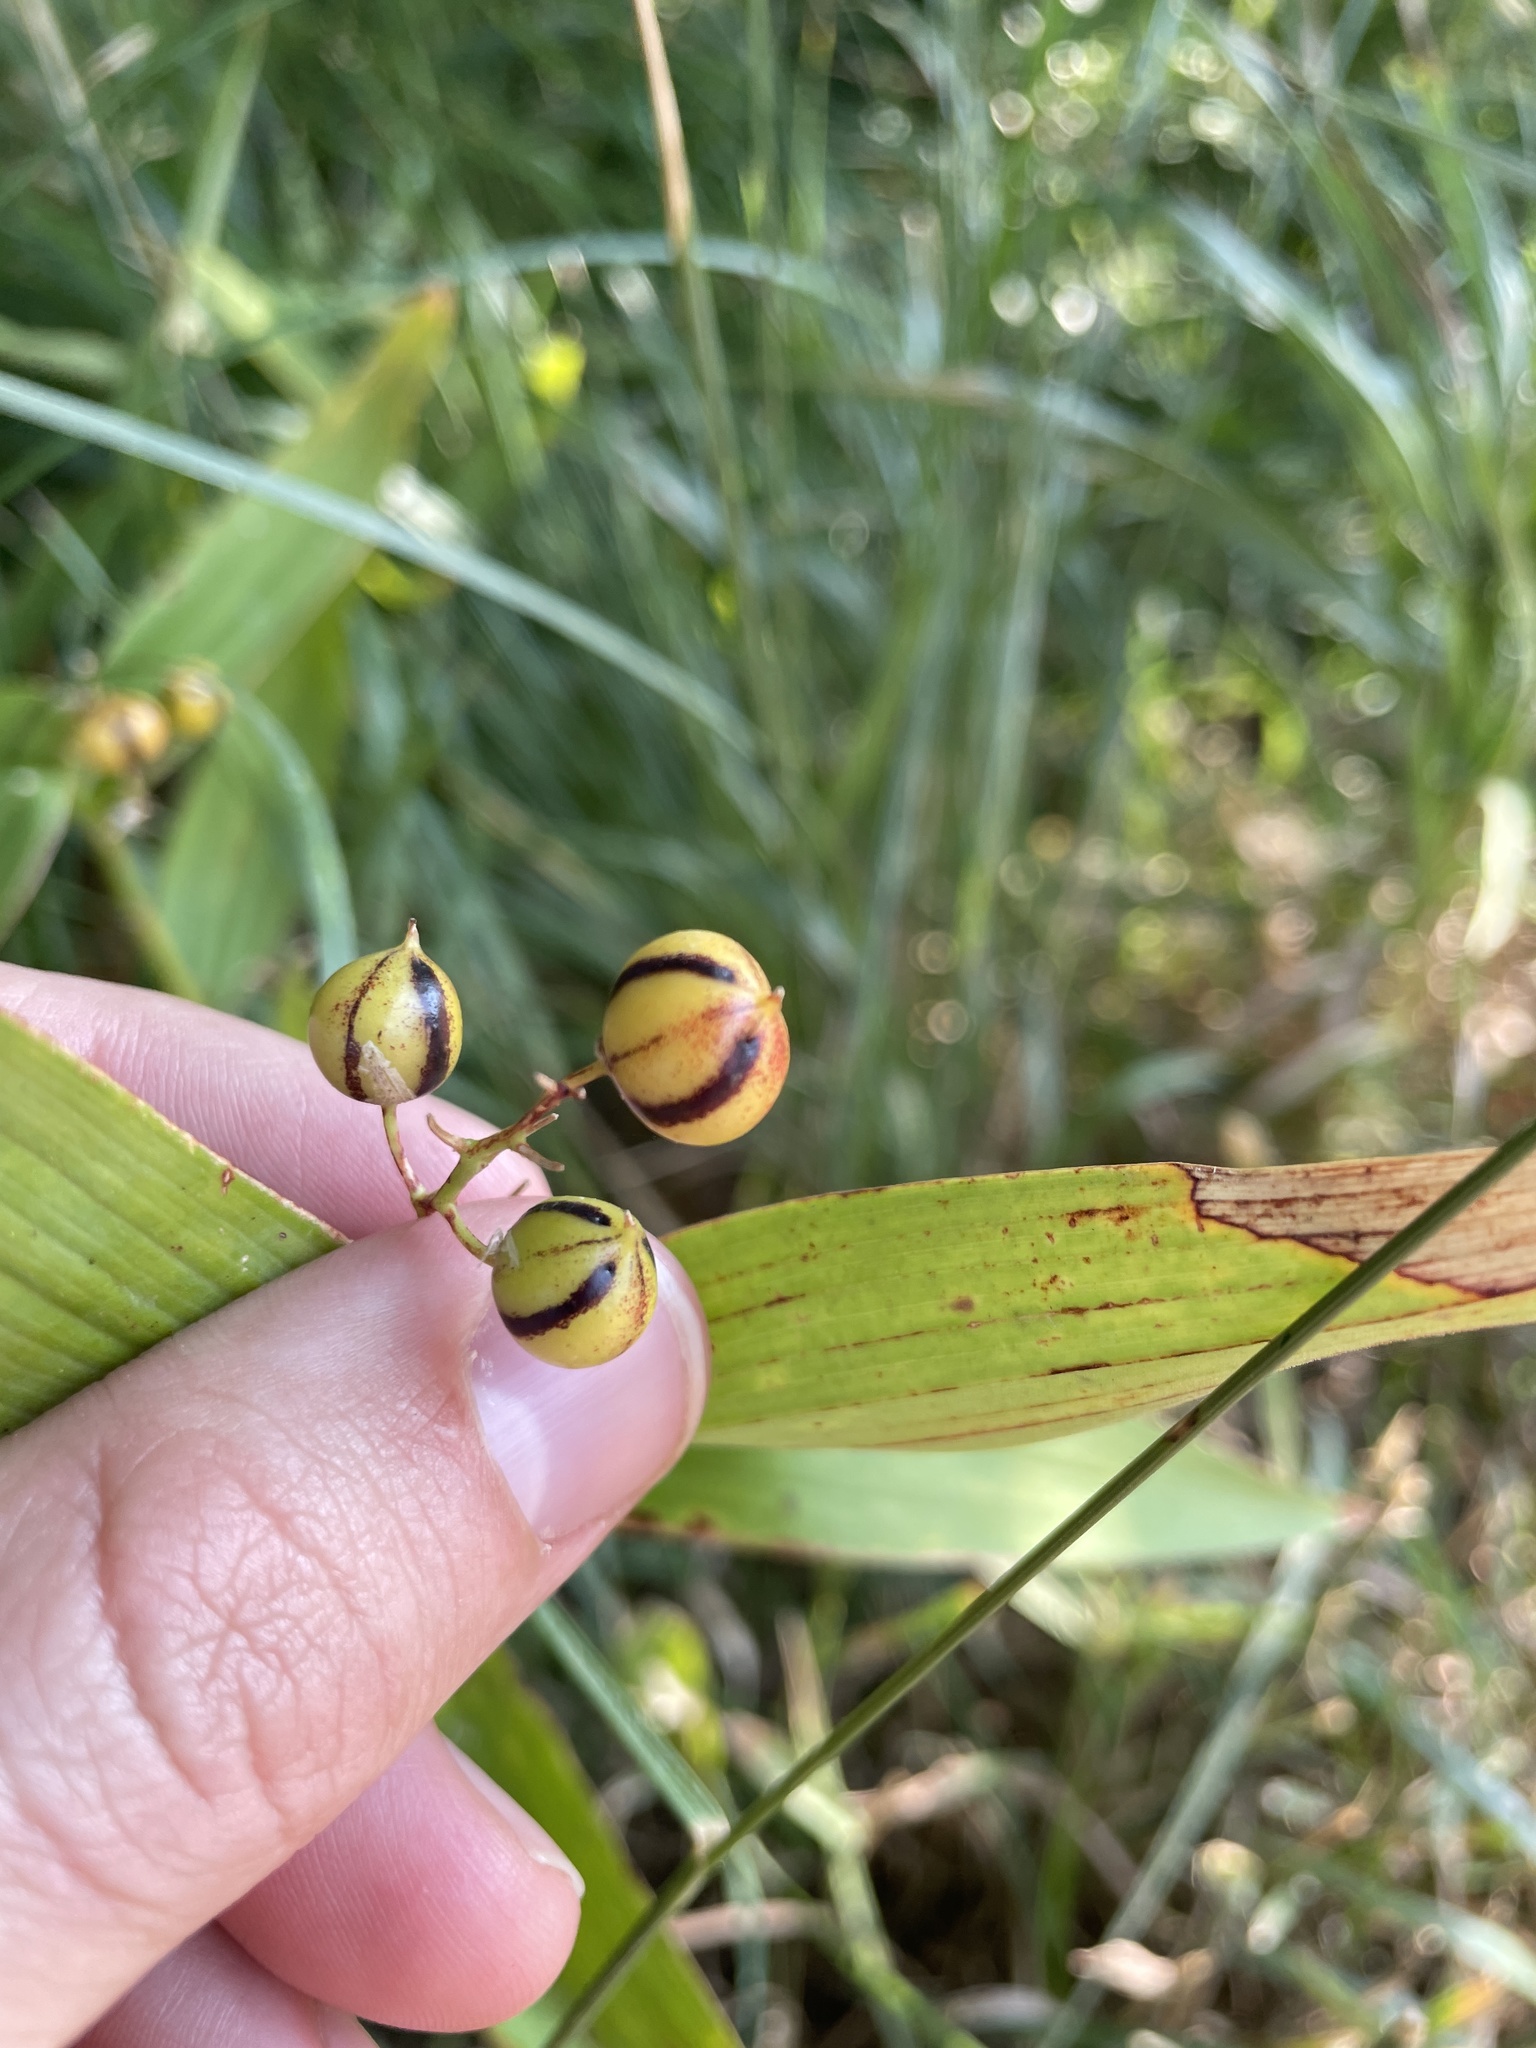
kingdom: Plantae
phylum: Tracheophyta
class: Liliopsida
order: Asparagales
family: Asparagaceae
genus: Maianthemum
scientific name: Maianthemum stellatum
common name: Little false solomon's seal
